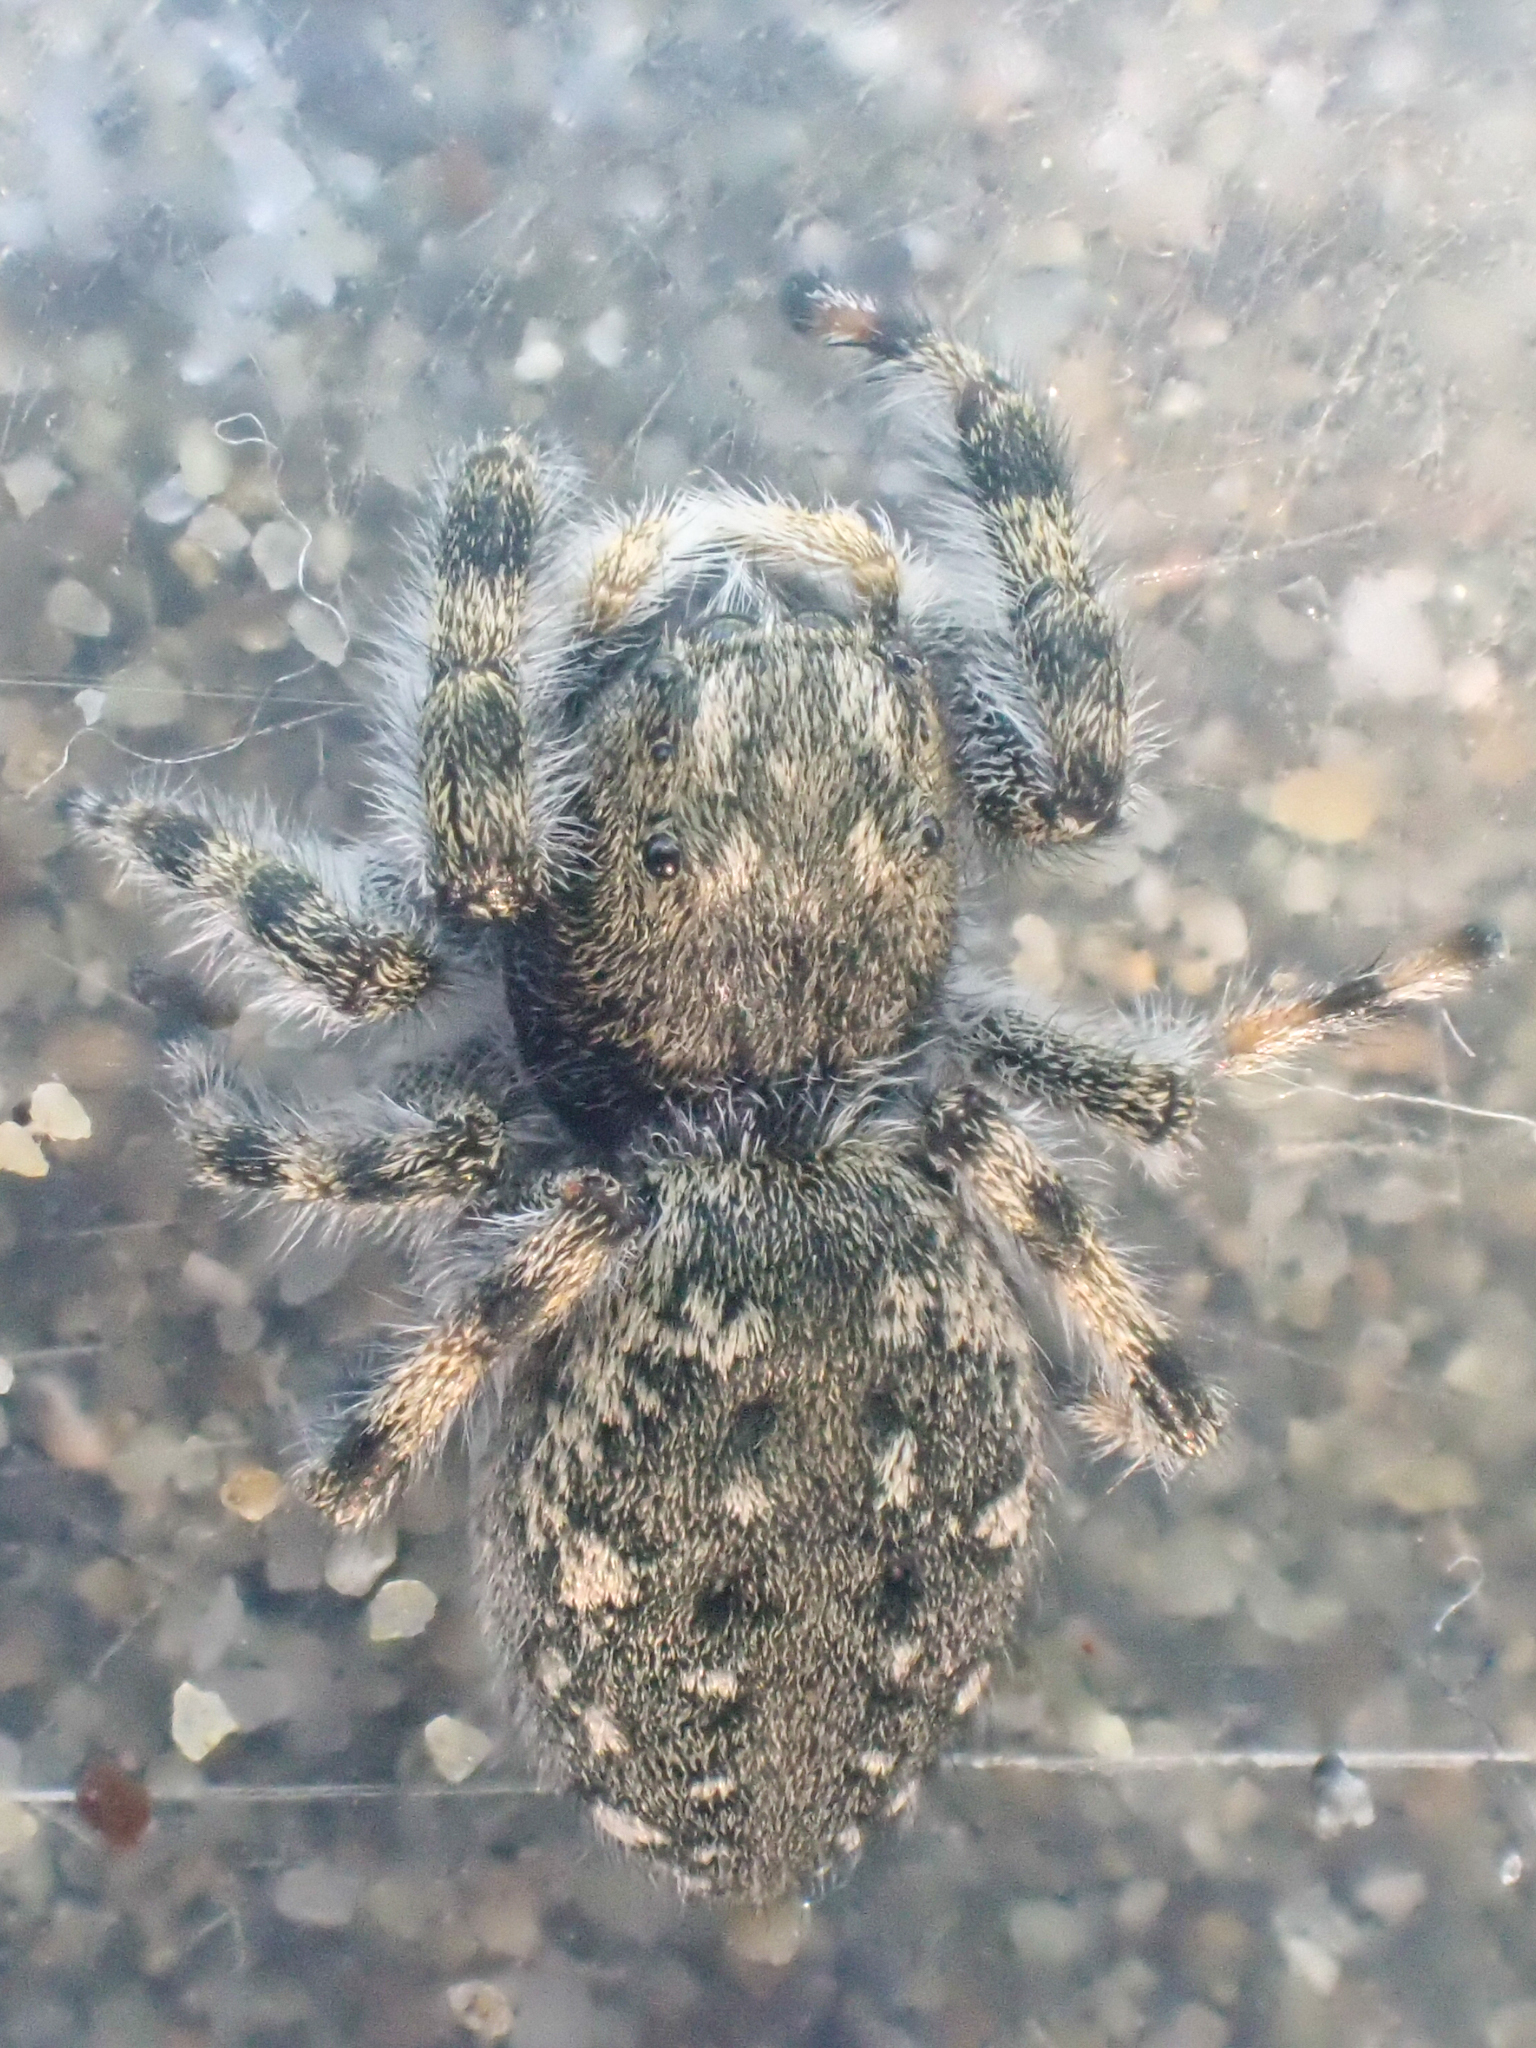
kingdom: Animalia
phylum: Arthropoda
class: Arachnida
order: Araneae
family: Salticidae
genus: Terralonus
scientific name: Terralonus californicus
